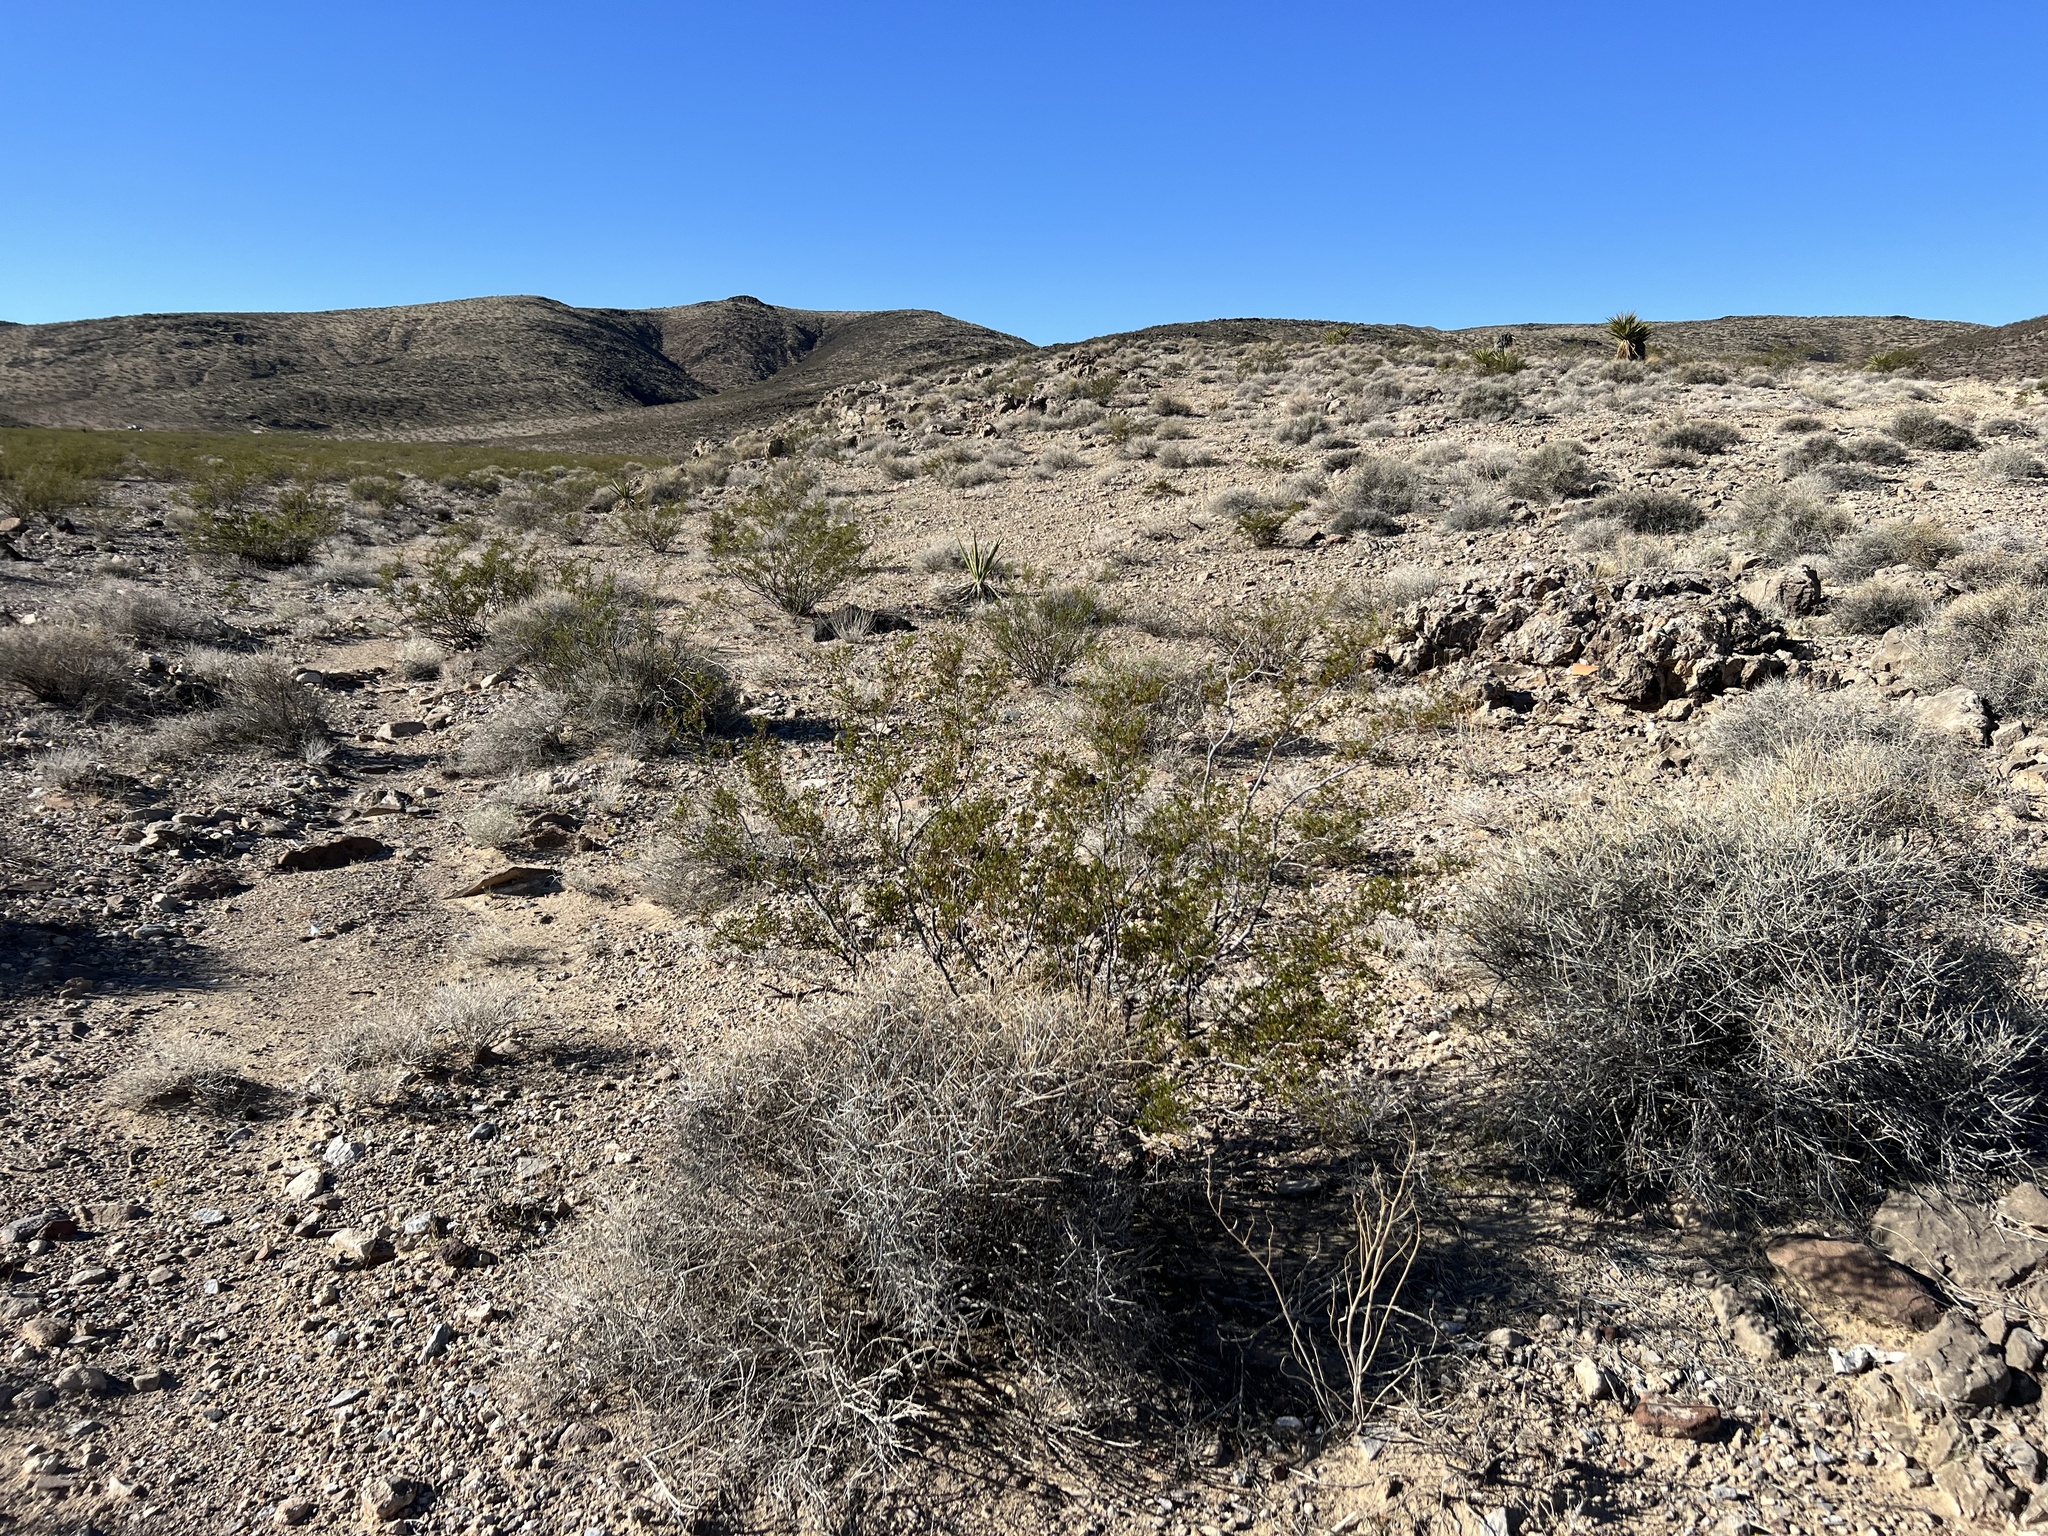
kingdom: Plantae
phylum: Tracheophyta
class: Magnoliopsida
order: Zygophyllales
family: Zygophyllaceae
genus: Larrea
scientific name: Larrea tridentata
